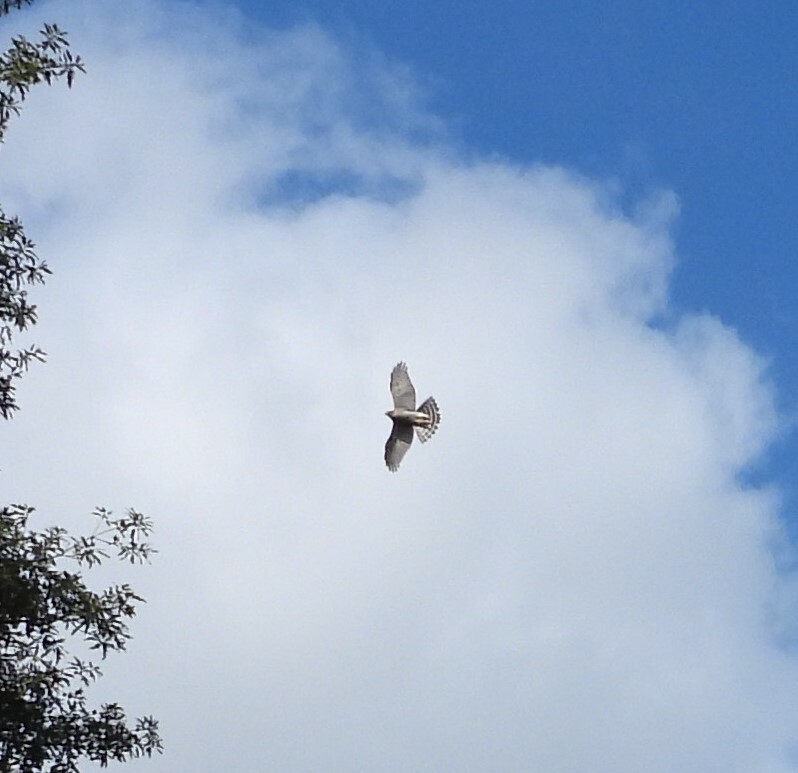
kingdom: Animalia
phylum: Chordata
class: Aves
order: Accipitriformes
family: Accipitridae
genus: Accipiter
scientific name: Accipiter nisus
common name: Eurasian sparrowhawk
